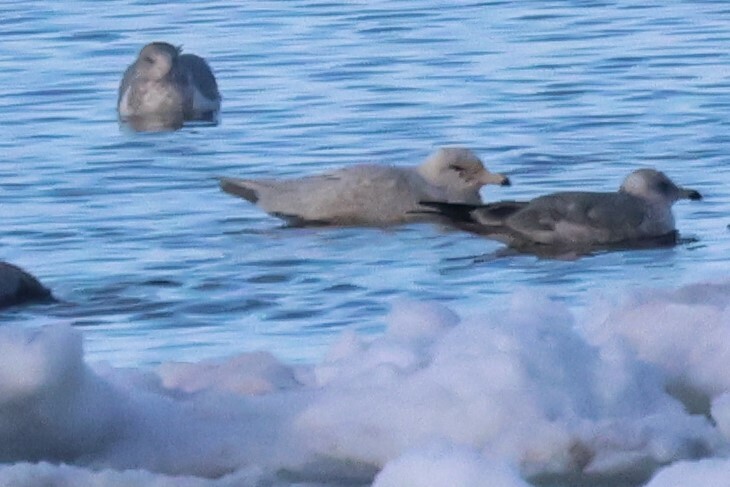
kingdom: Animalia
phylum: Chordata
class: Aves
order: Charadriiformes
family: Laridae
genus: Larus
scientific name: Larus hyperboreus
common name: Glaucous gull
